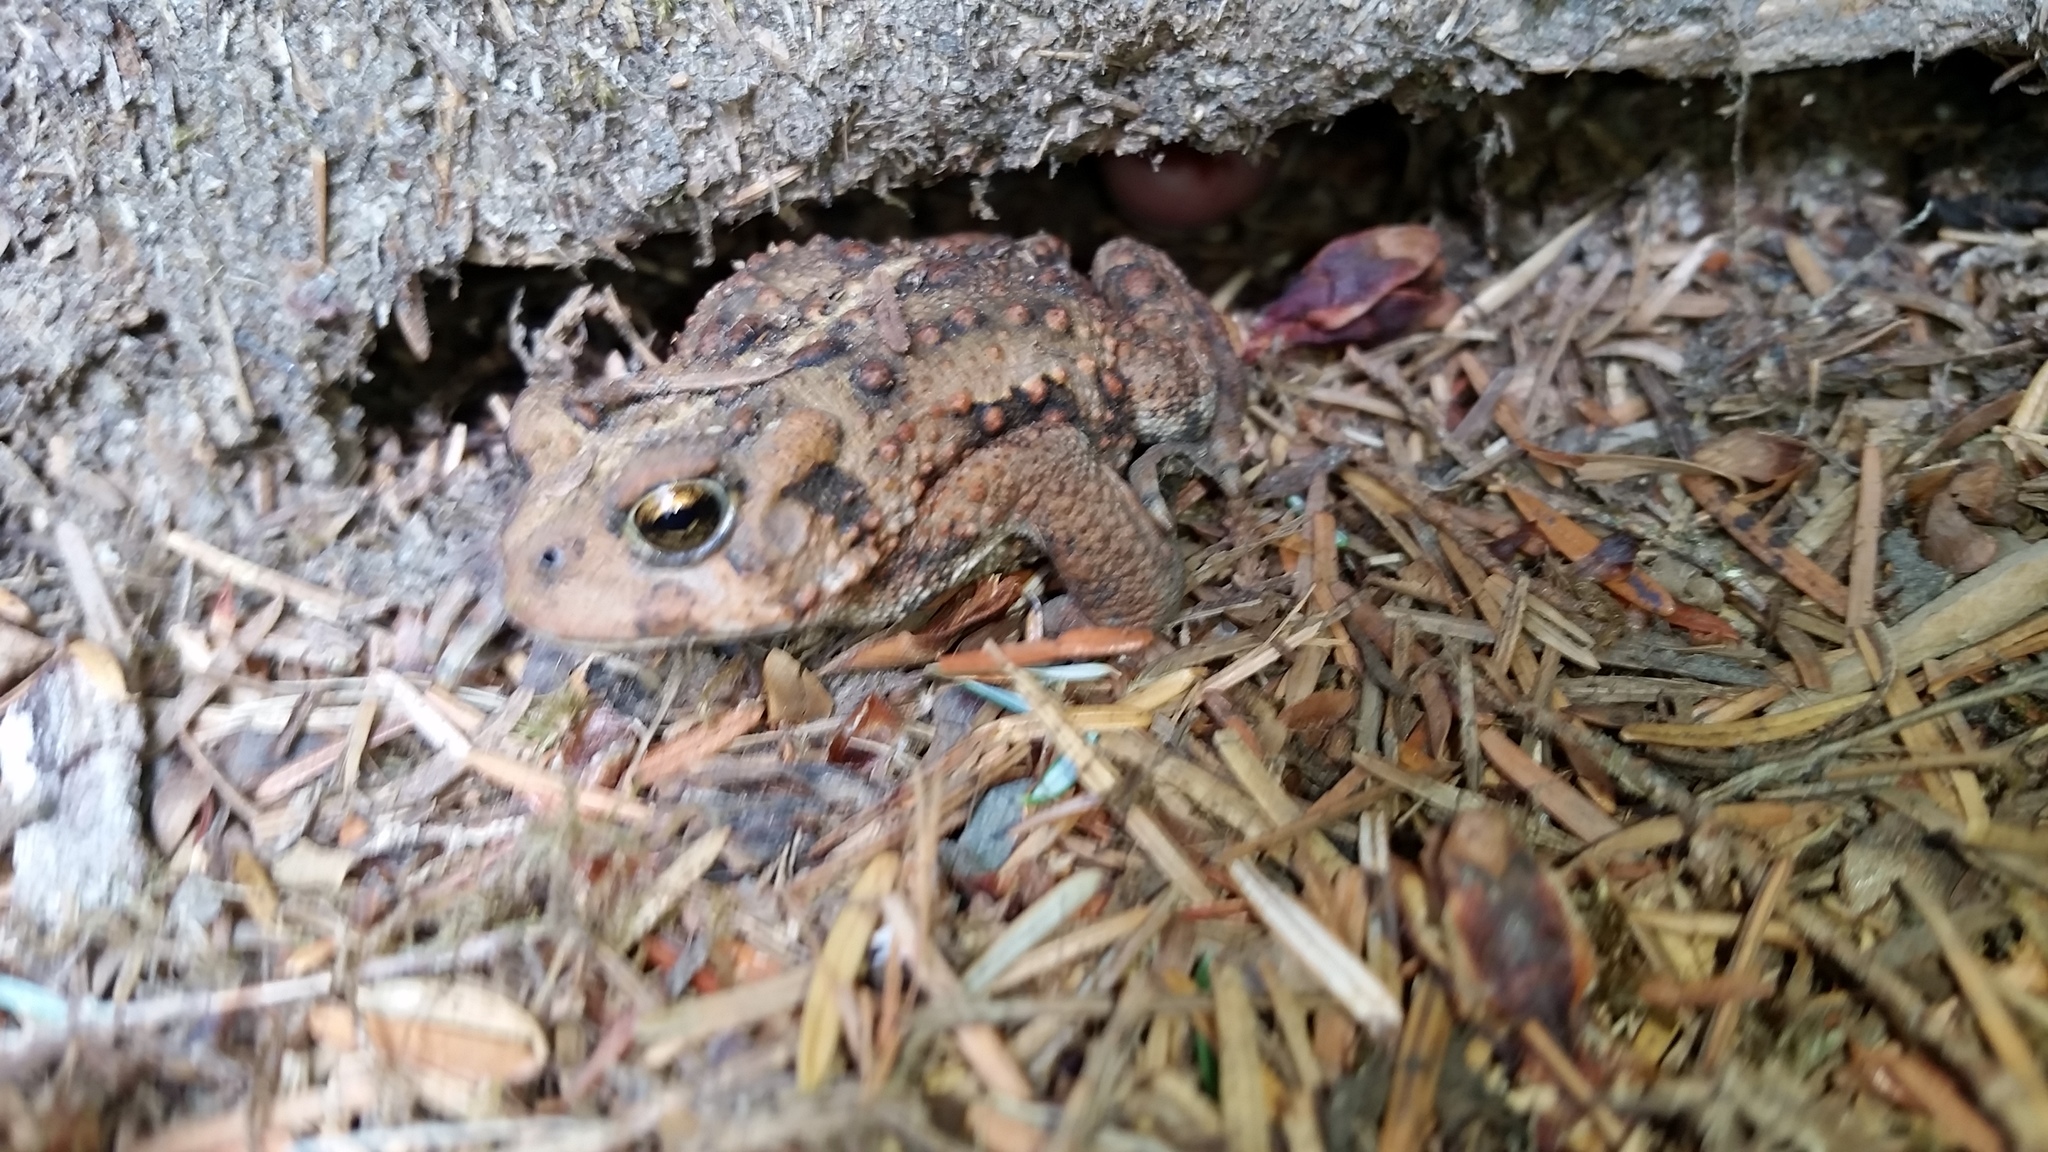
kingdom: Animalia
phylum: Chordata
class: Amphibia
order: Anura
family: Bufonidae
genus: Anaxyrus
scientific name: Anaxyrus boreas
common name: Western toad
